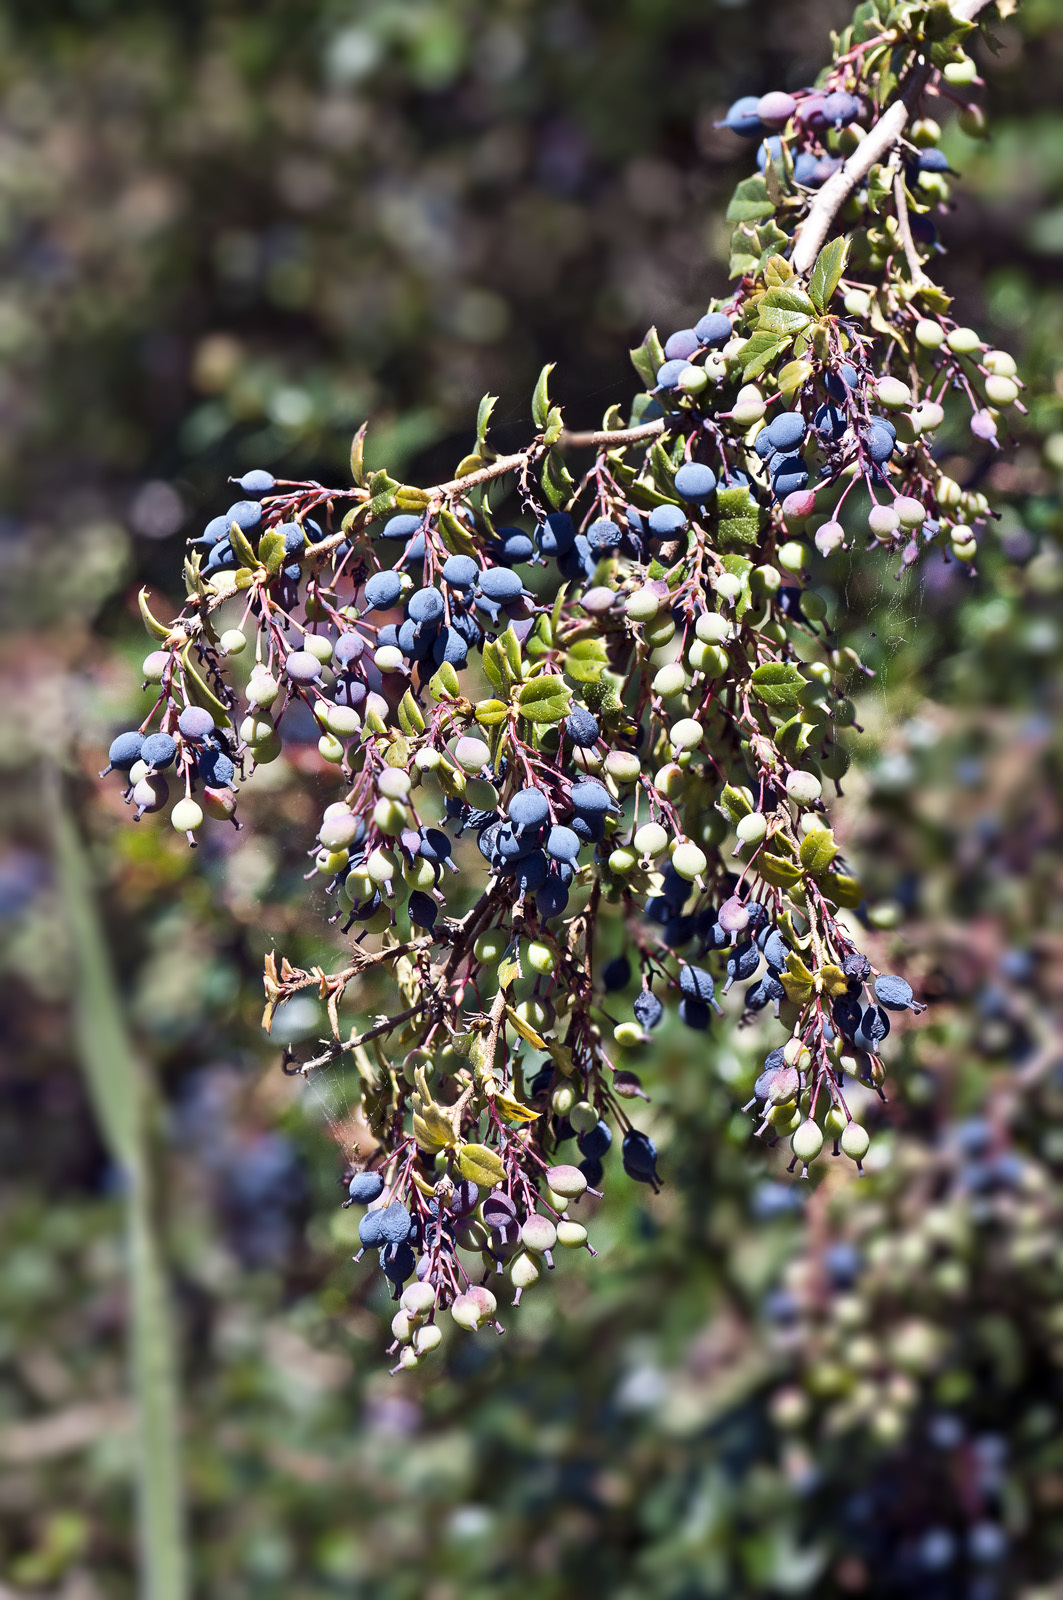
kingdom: Plantae
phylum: Tracheophyta
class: Magnoliopsida
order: Ranunculales
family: Berberidaceae
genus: Berberis
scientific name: Berberis darwinii
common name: Darwin's barberry
